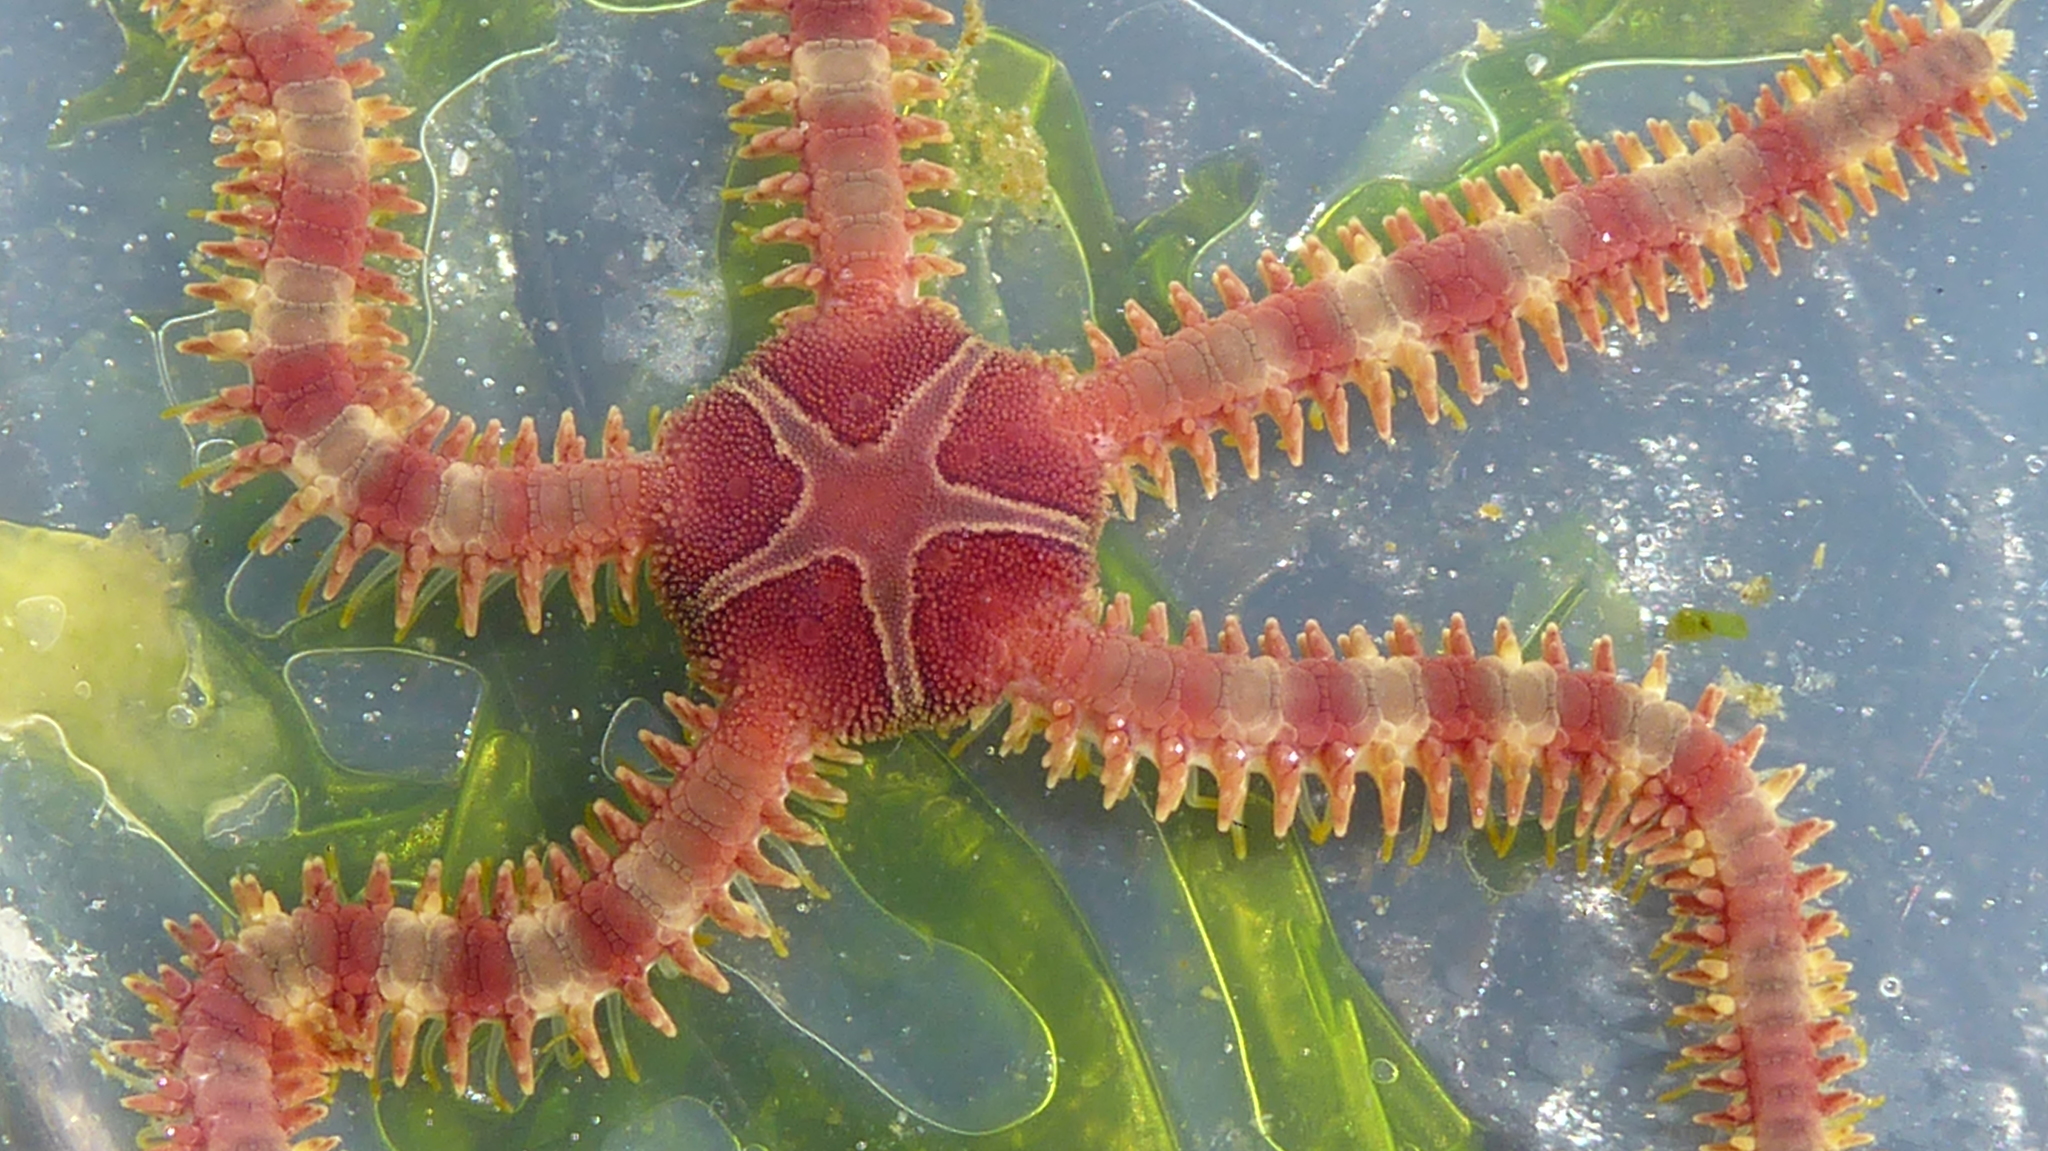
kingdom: Animalia
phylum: Echinodermata
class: Ophiuroidea
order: Amphilepidida
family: Ophiopholidae
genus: Ophiopholis
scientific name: Ophiopholis aculeata
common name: Crevice brittlestar
